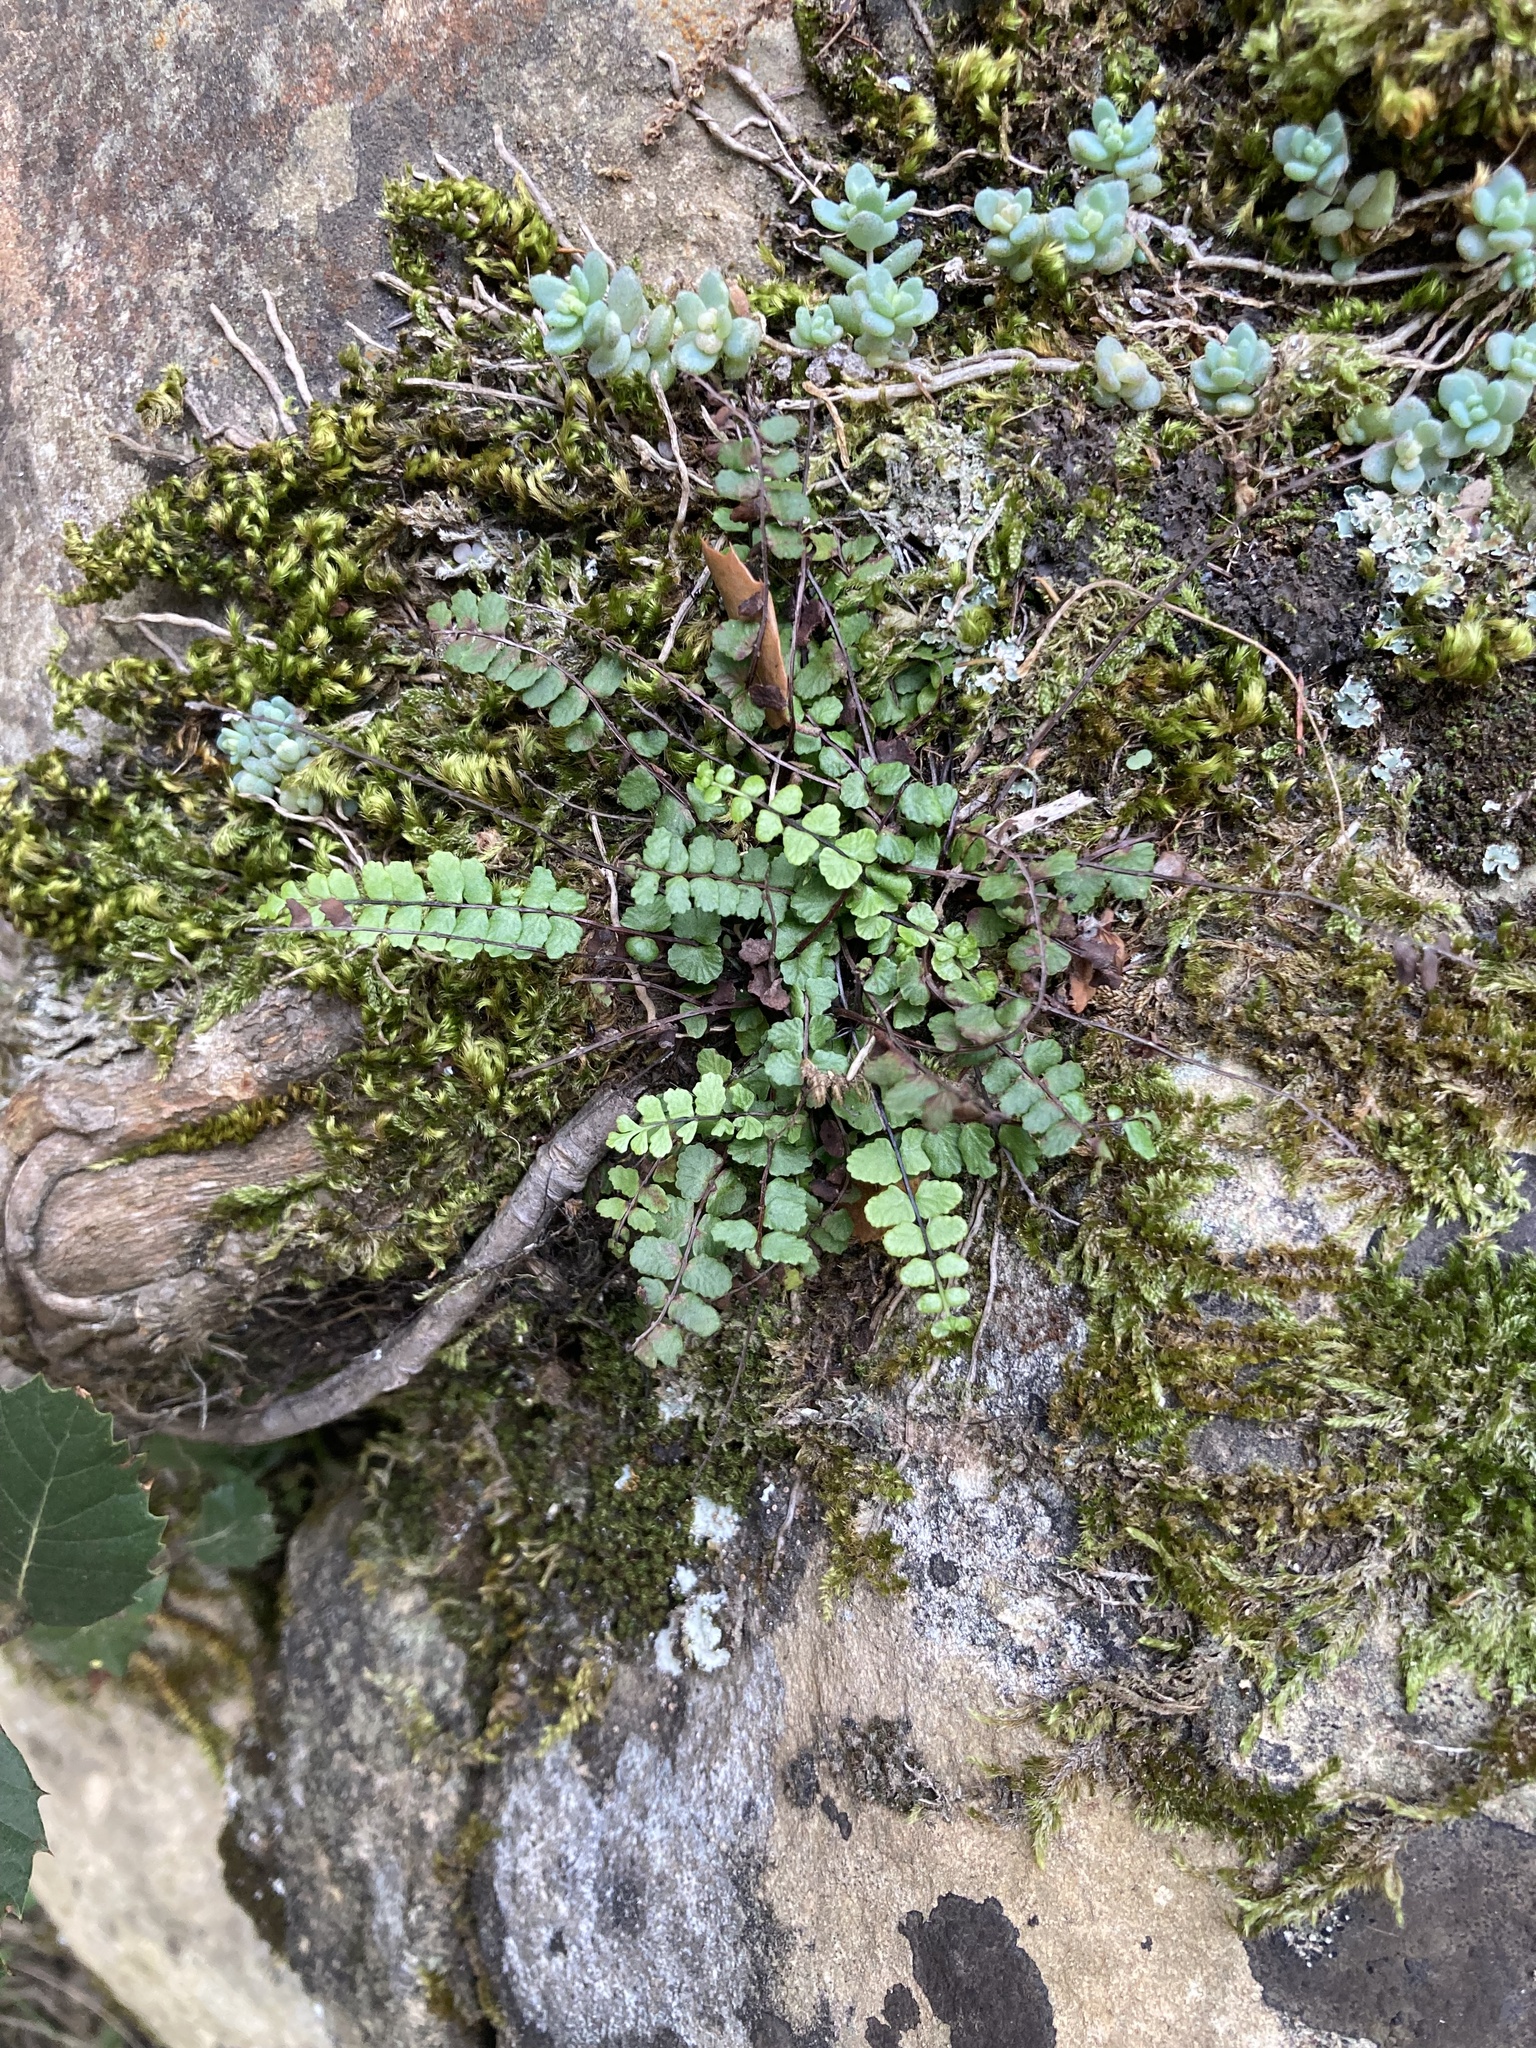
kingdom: Plantae
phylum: Tracheophyta
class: Polypodiopsida
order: Polypodiales
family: Aspleniaceae
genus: Asplenium
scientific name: Asplenium trichomanes
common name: Maidenhair spleenwort
